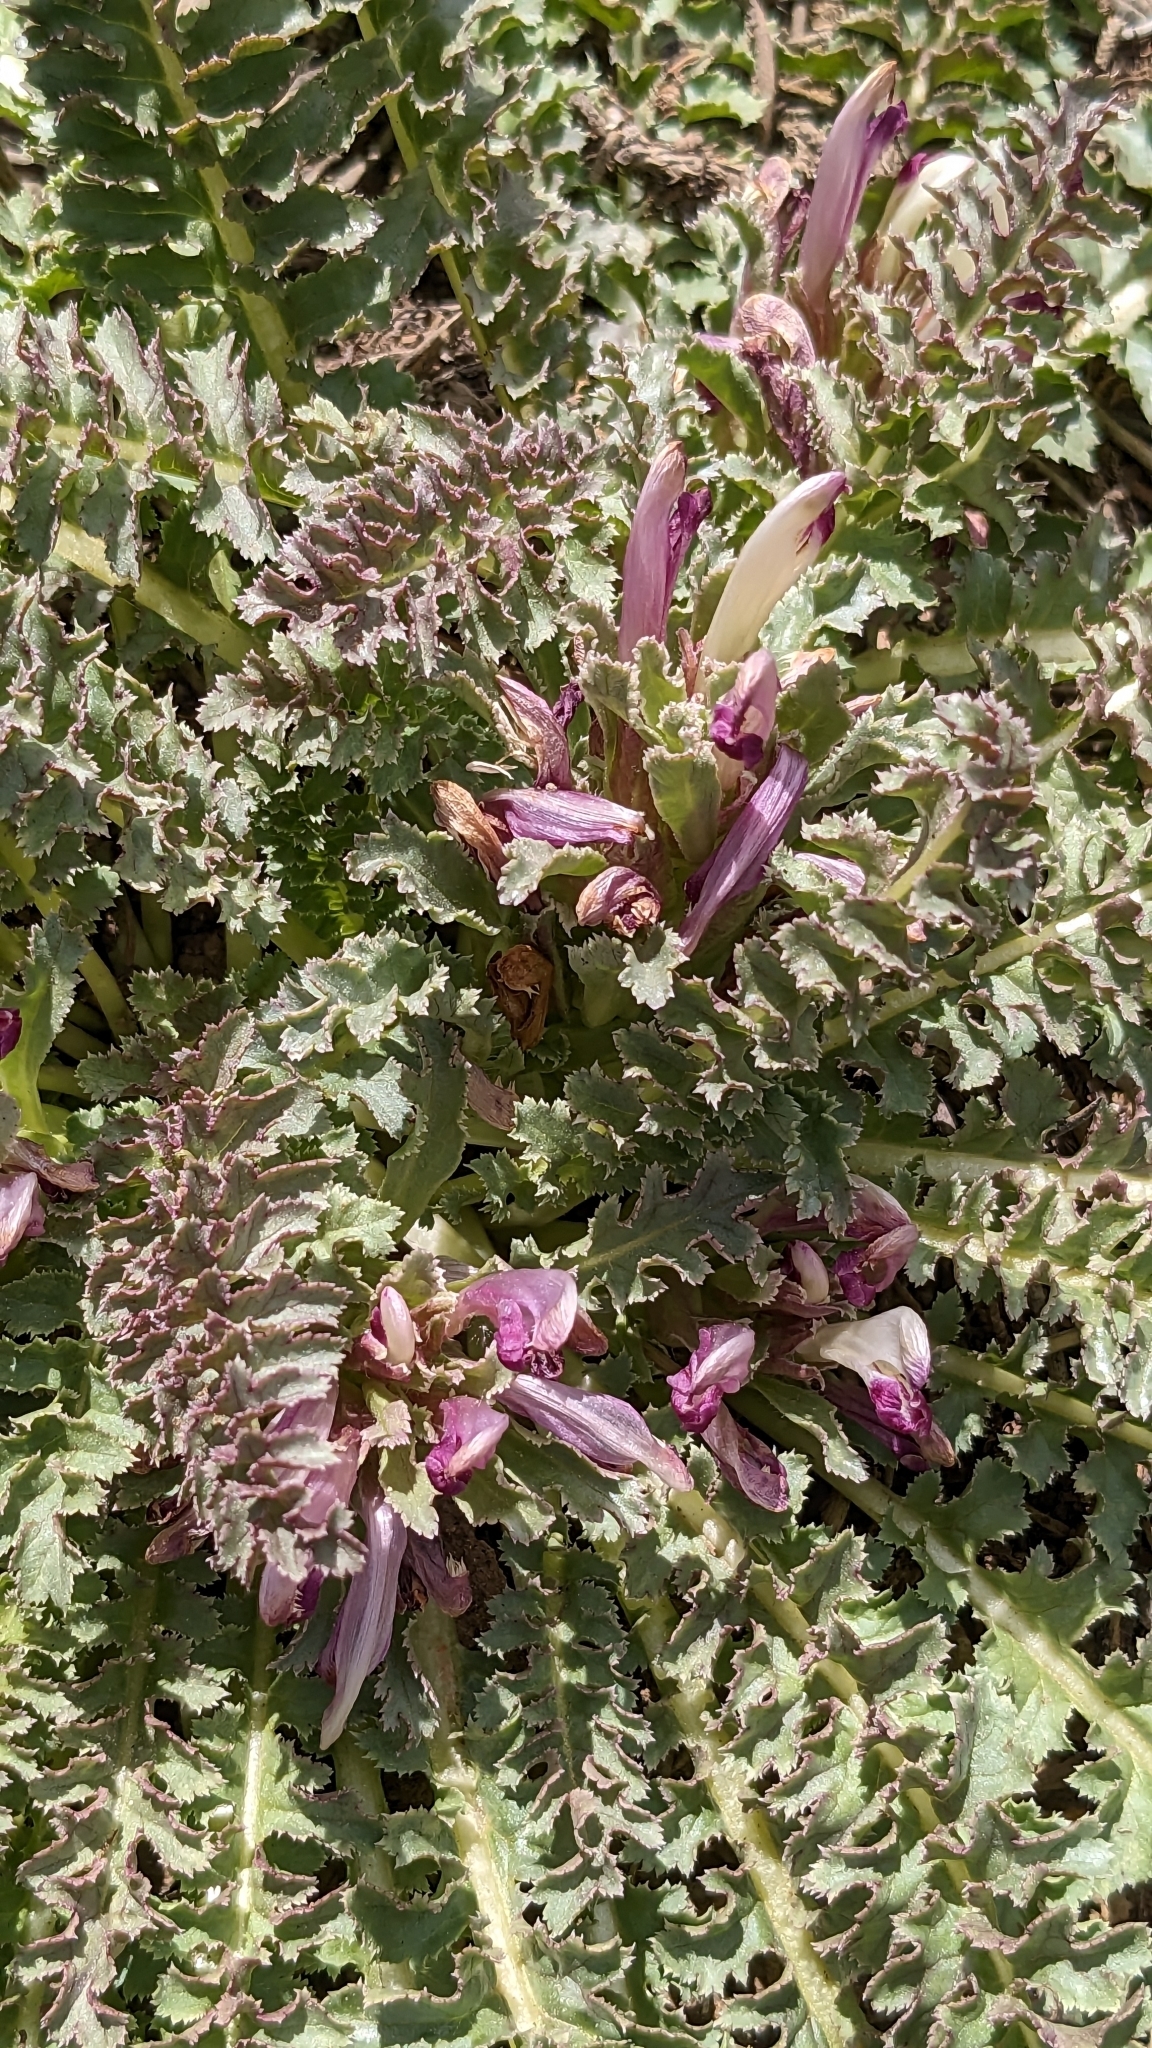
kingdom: Plantae
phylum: Tracheophyta
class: Magnoliopsida
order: Lamiales
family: Orobanchaceae
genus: Pedicularis
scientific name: Pedicularis centranthera
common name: Dwarf lousewort
